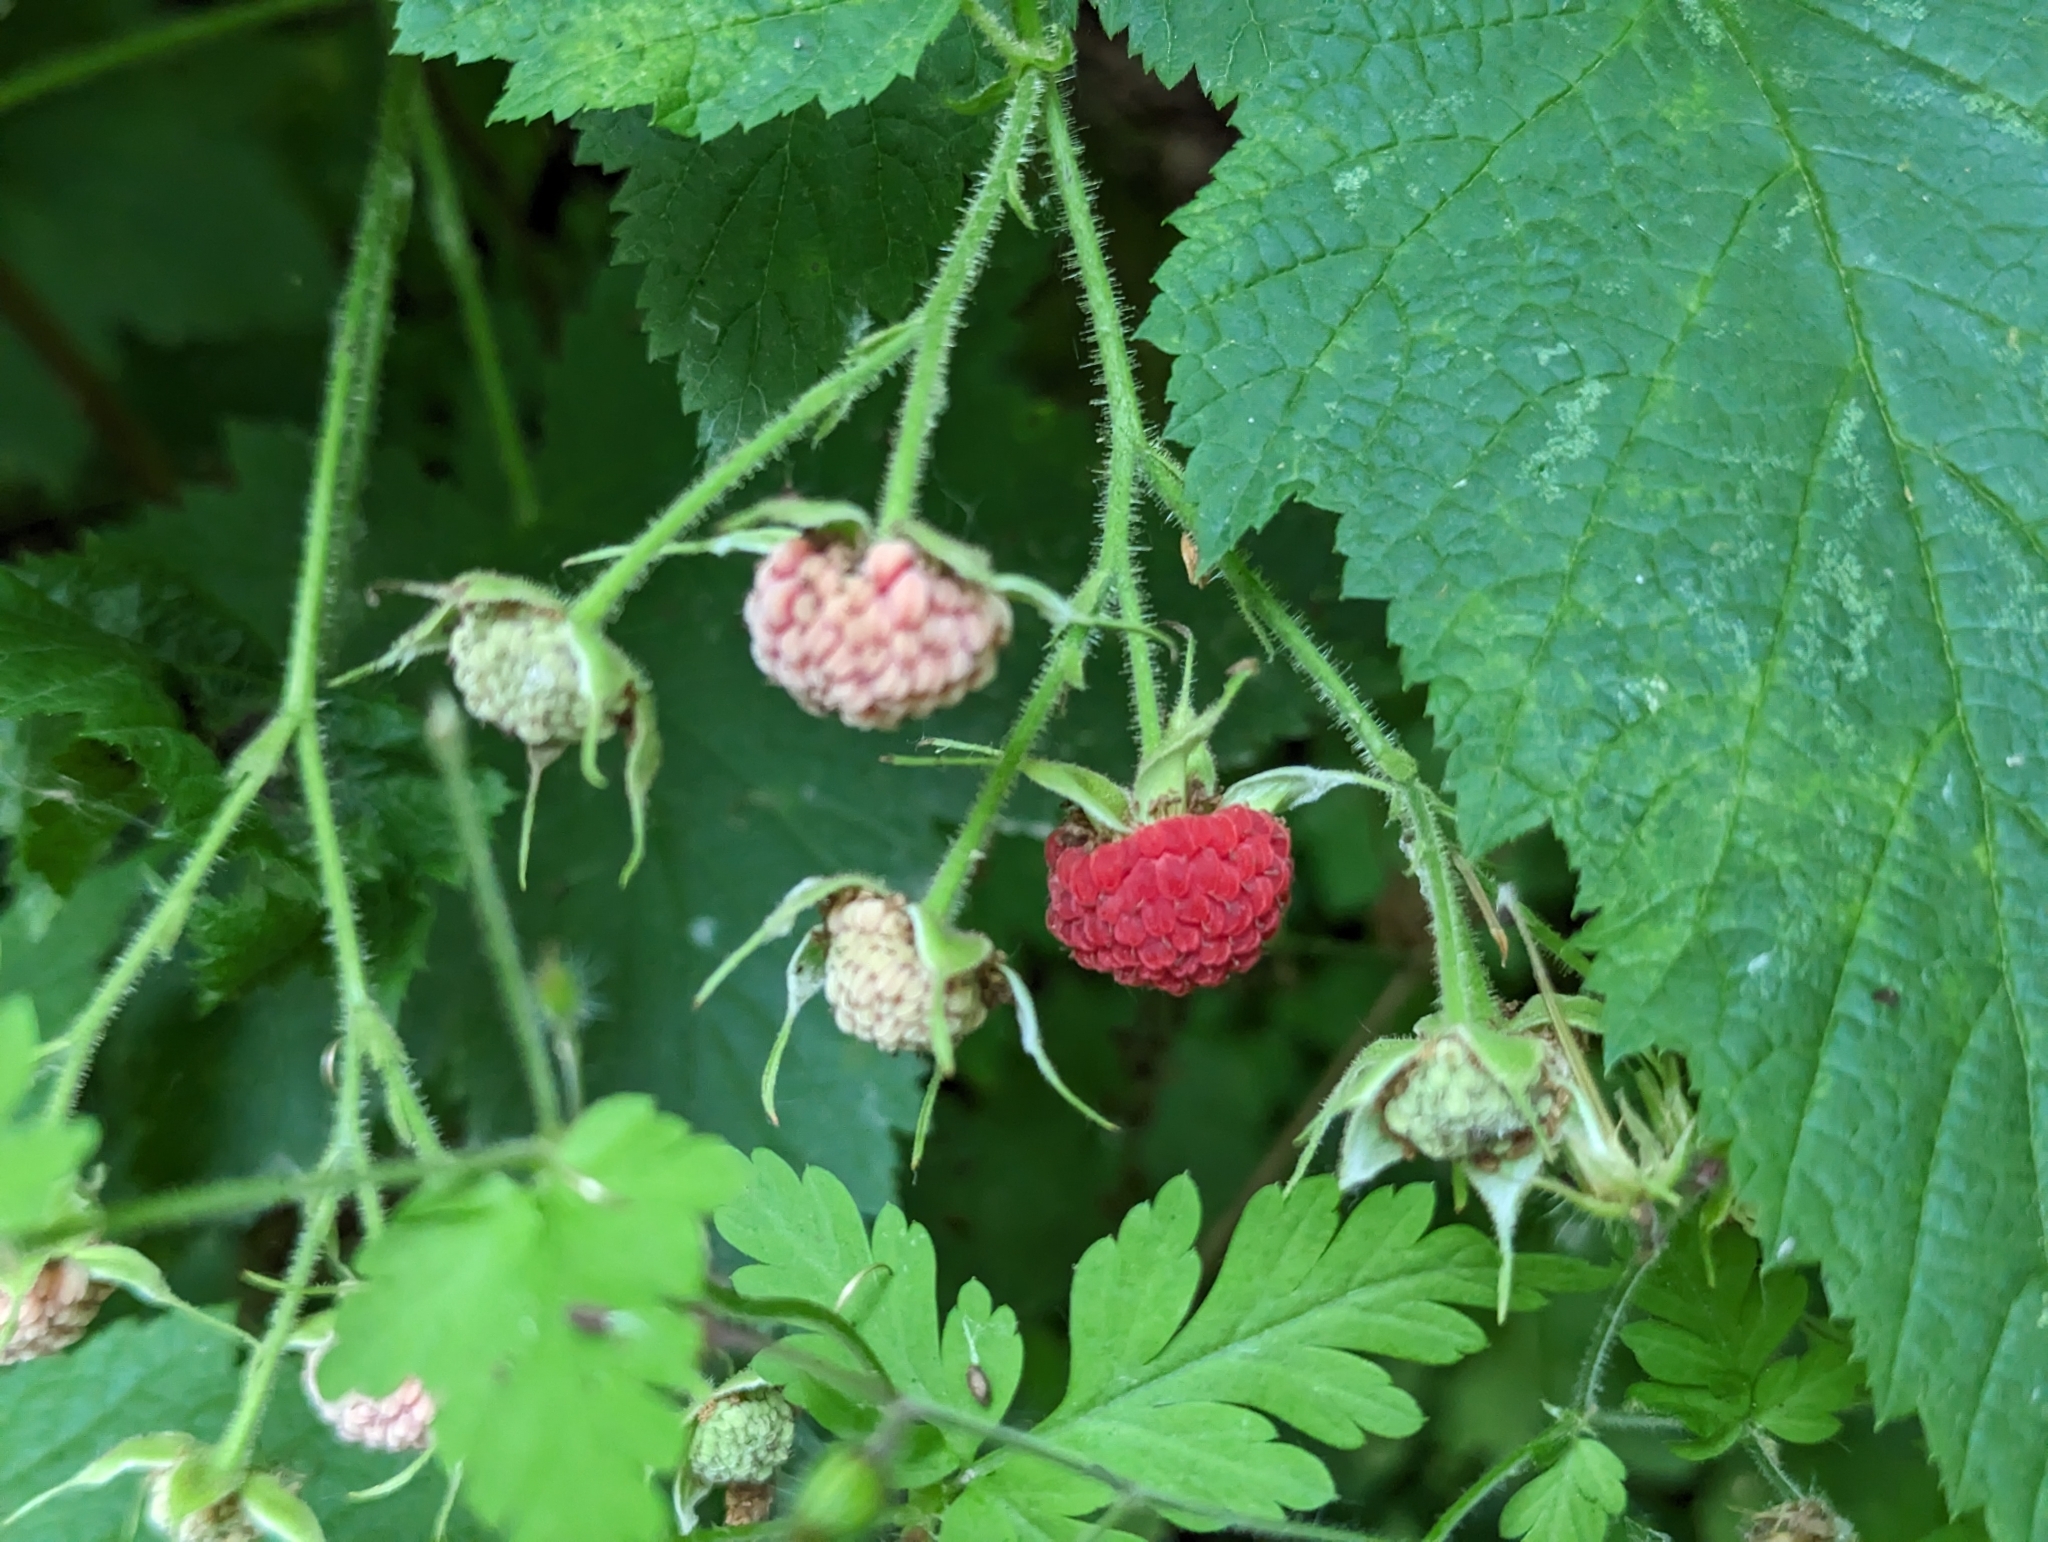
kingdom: Plantae
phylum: Tracheophyta
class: Magnoliopsida
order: Rosales
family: Rosaceae
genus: Rubus
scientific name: Rubus parviflorus
